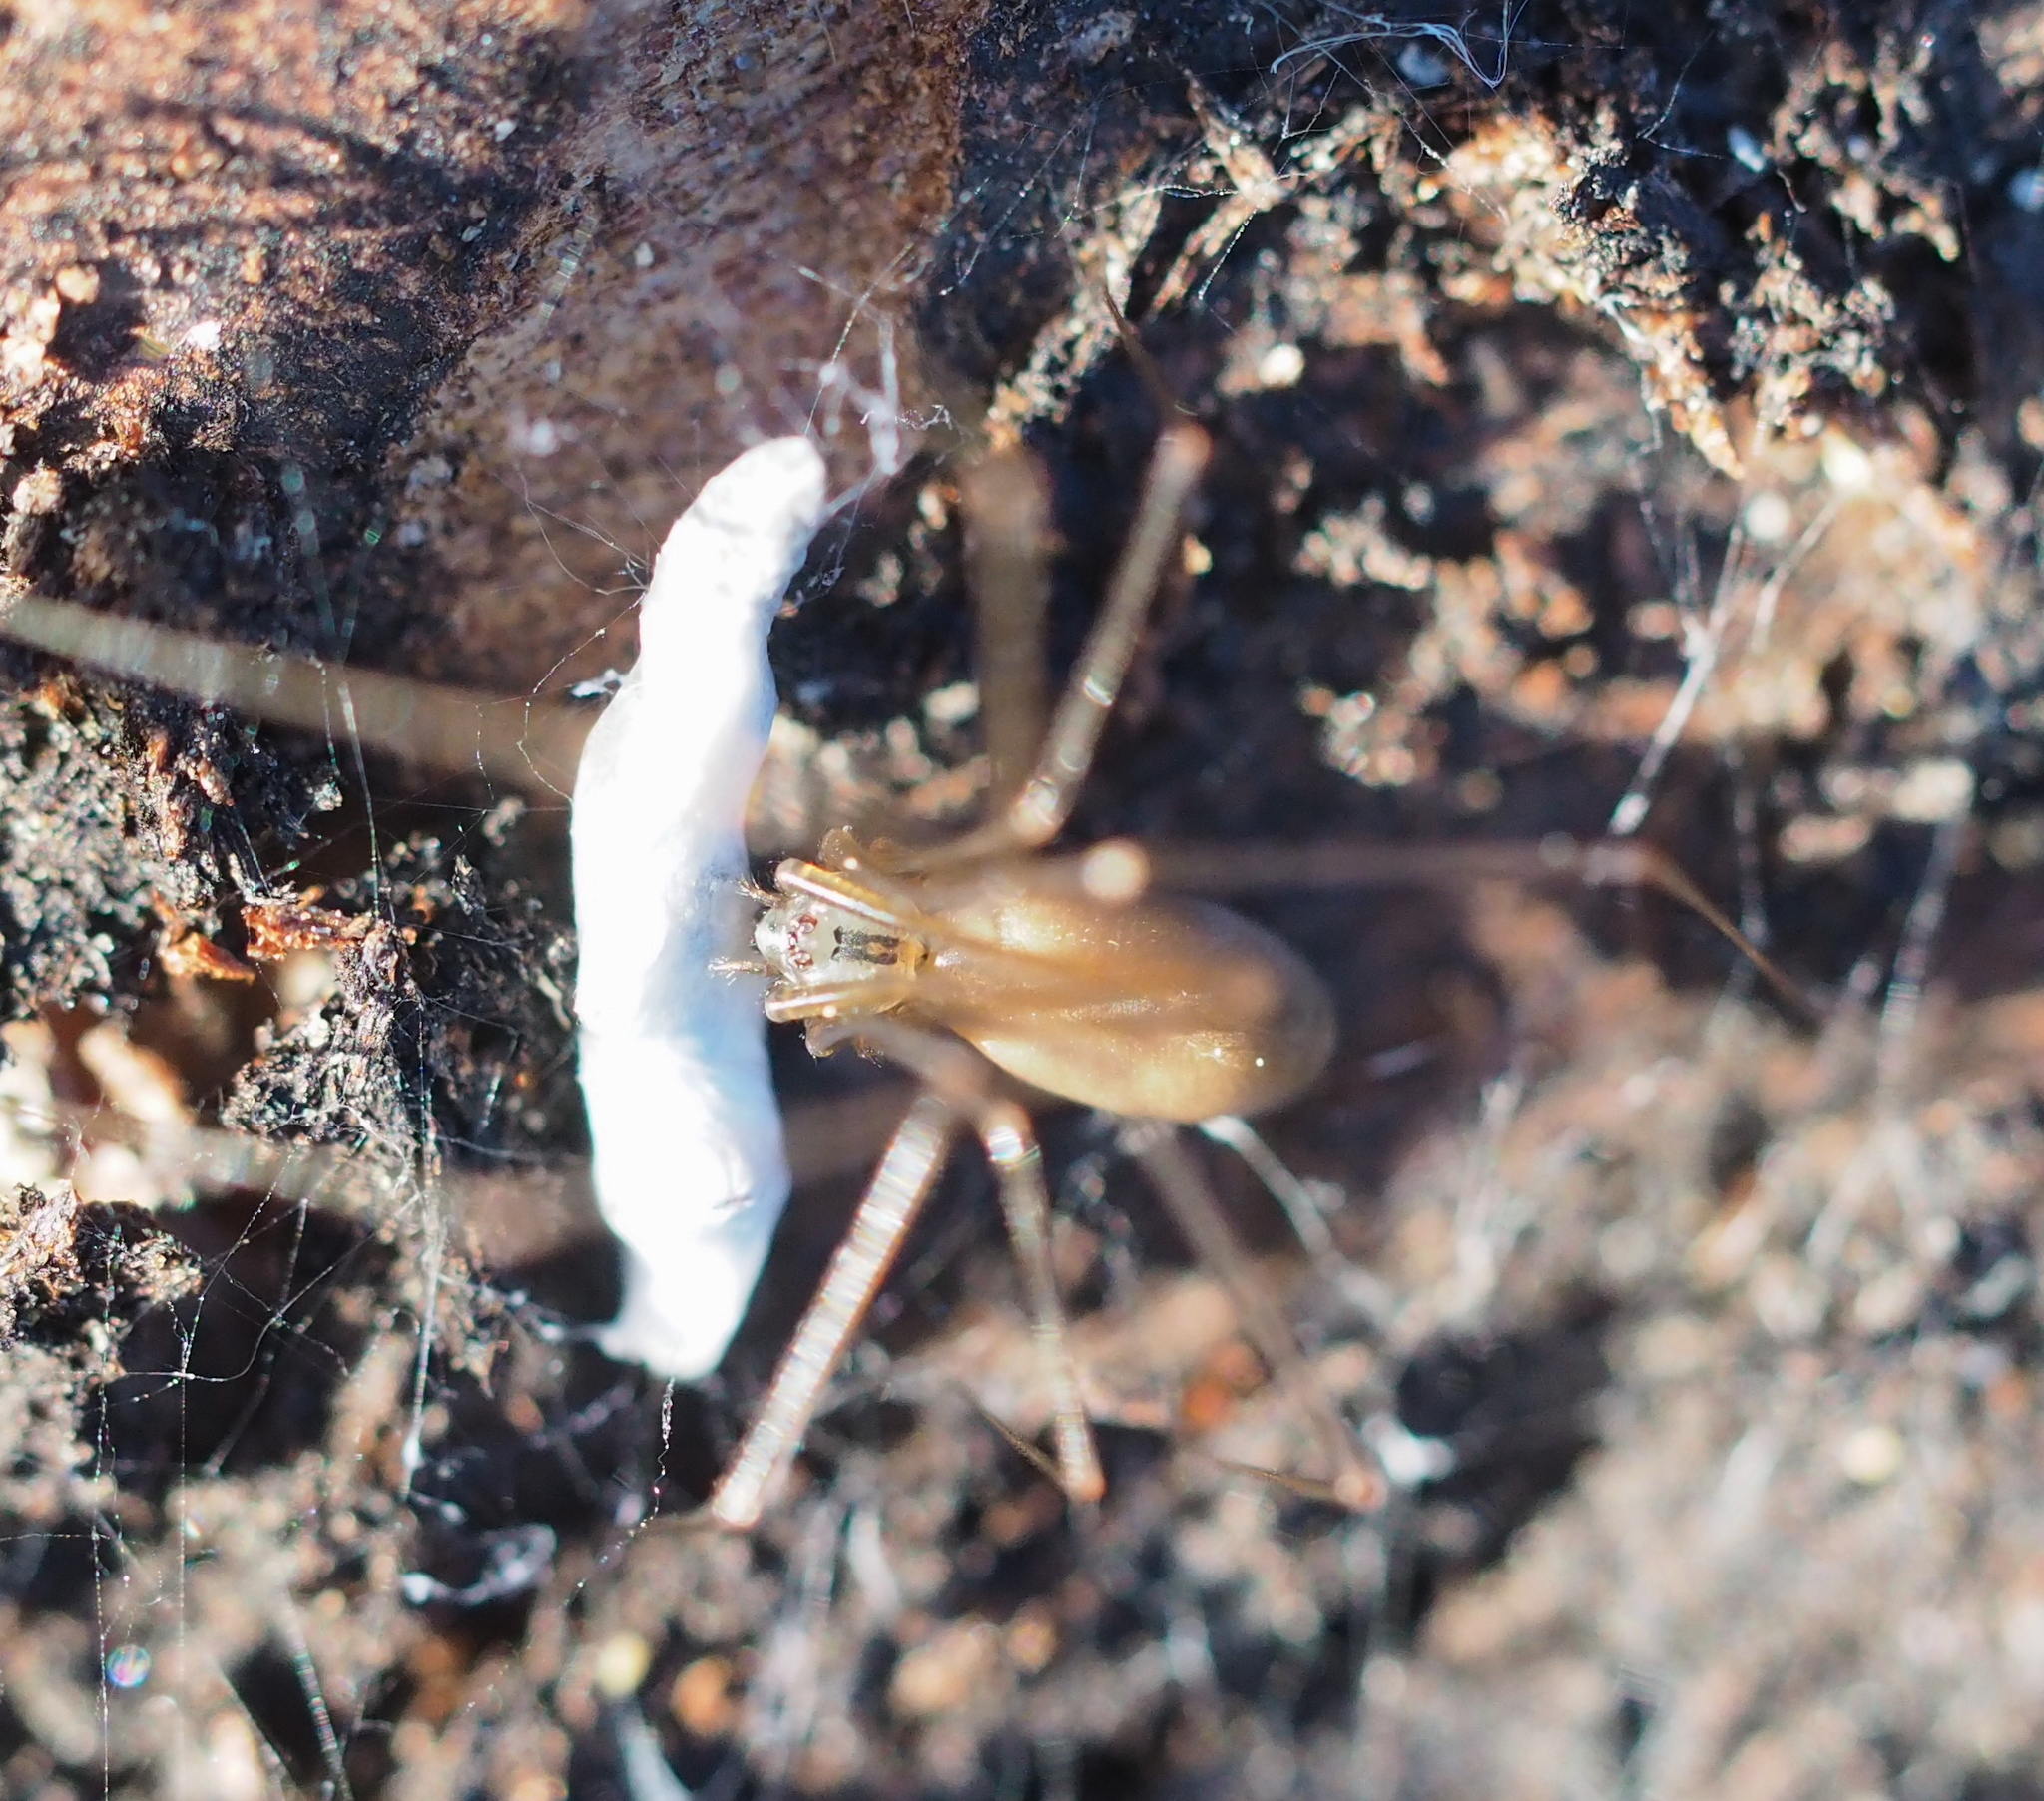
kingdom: Animalia
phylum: Arthropoda
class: Arachnida
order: Araneae
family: Pholcidae
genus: Pholcus
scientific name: Pholcus opilionoides
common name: Daddylongleg spider
